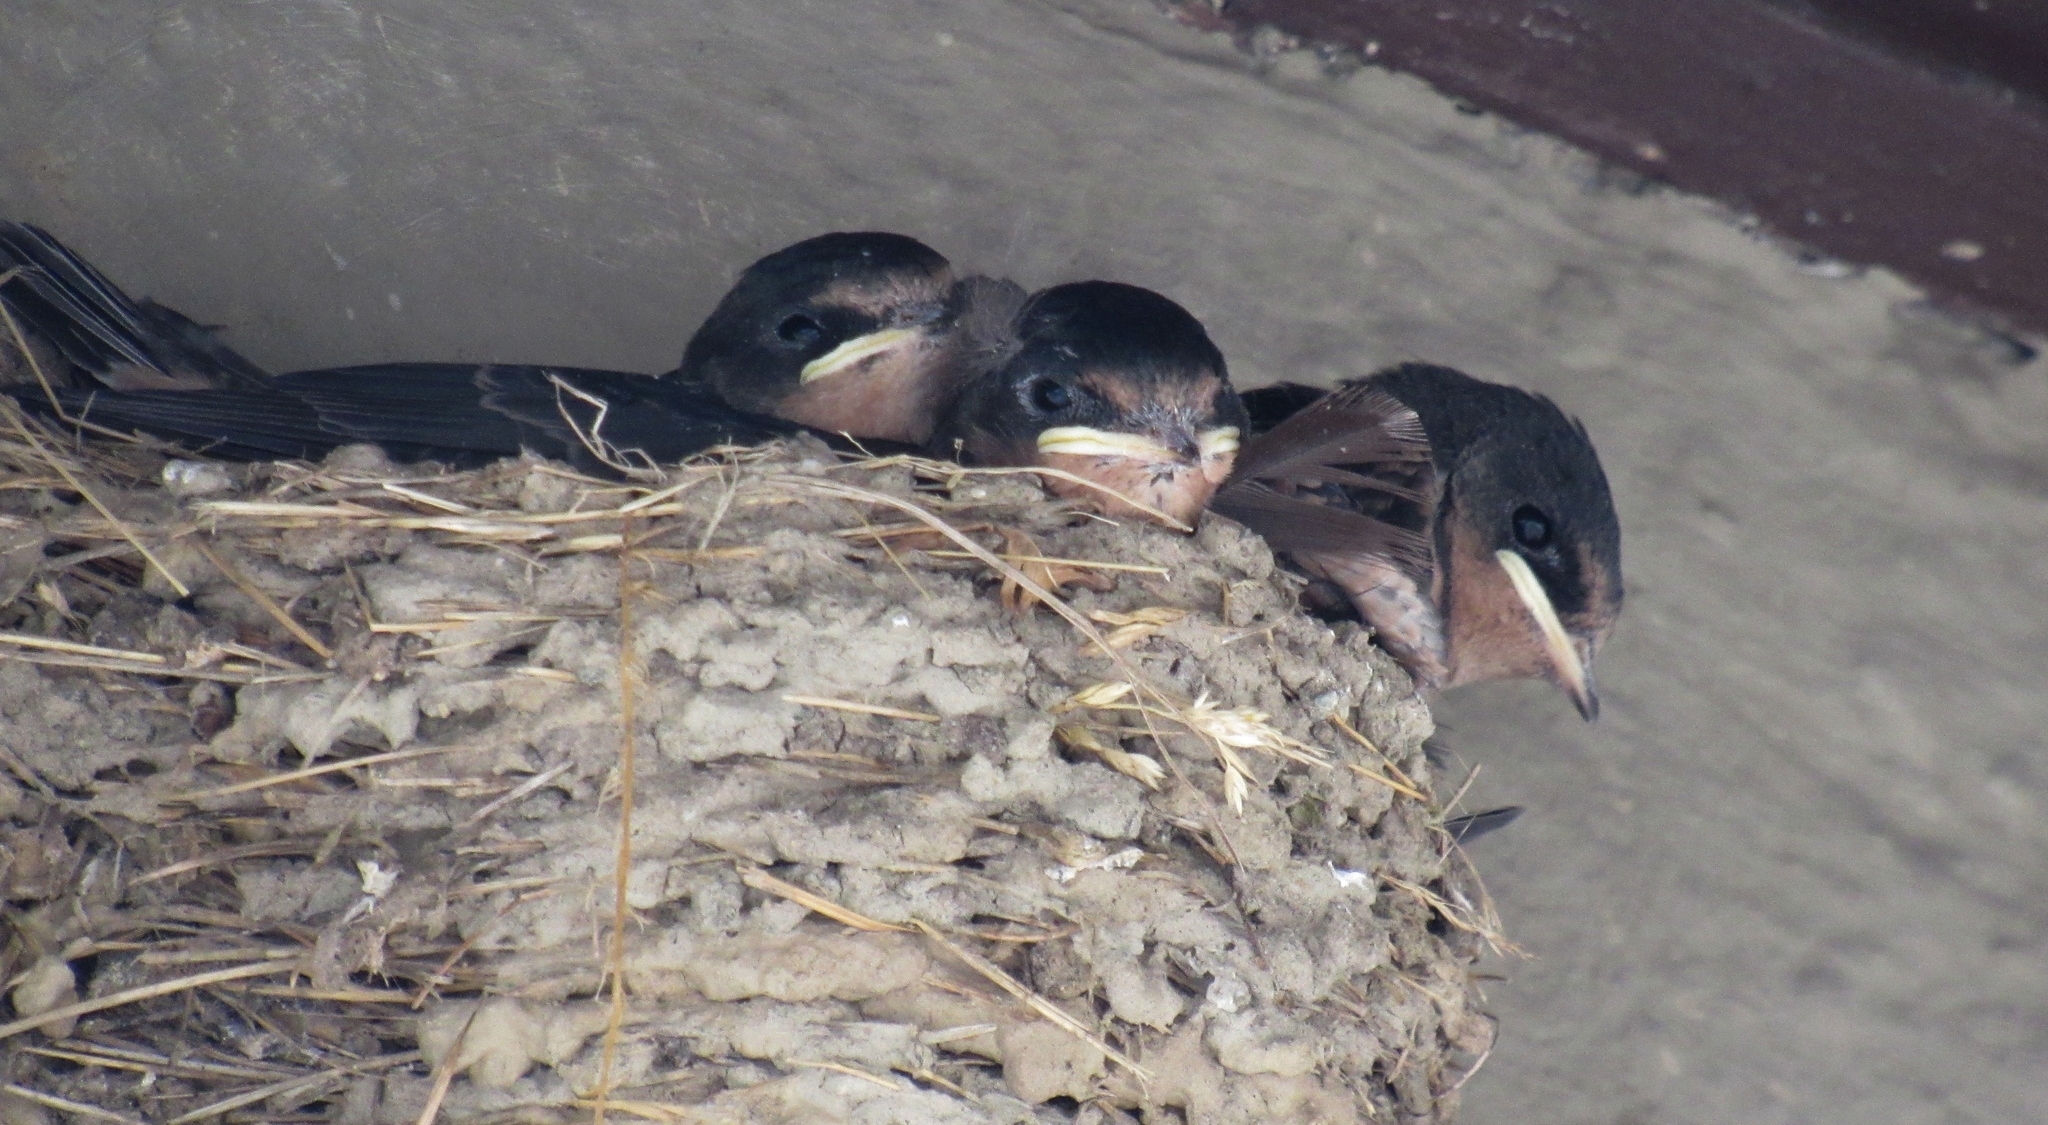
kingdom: Animalia
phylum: Chordata
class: Aves
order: Passeriformes
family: Hirundinidae
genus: Hirundo
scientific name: Hirundo rustica
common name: Barn swallow
